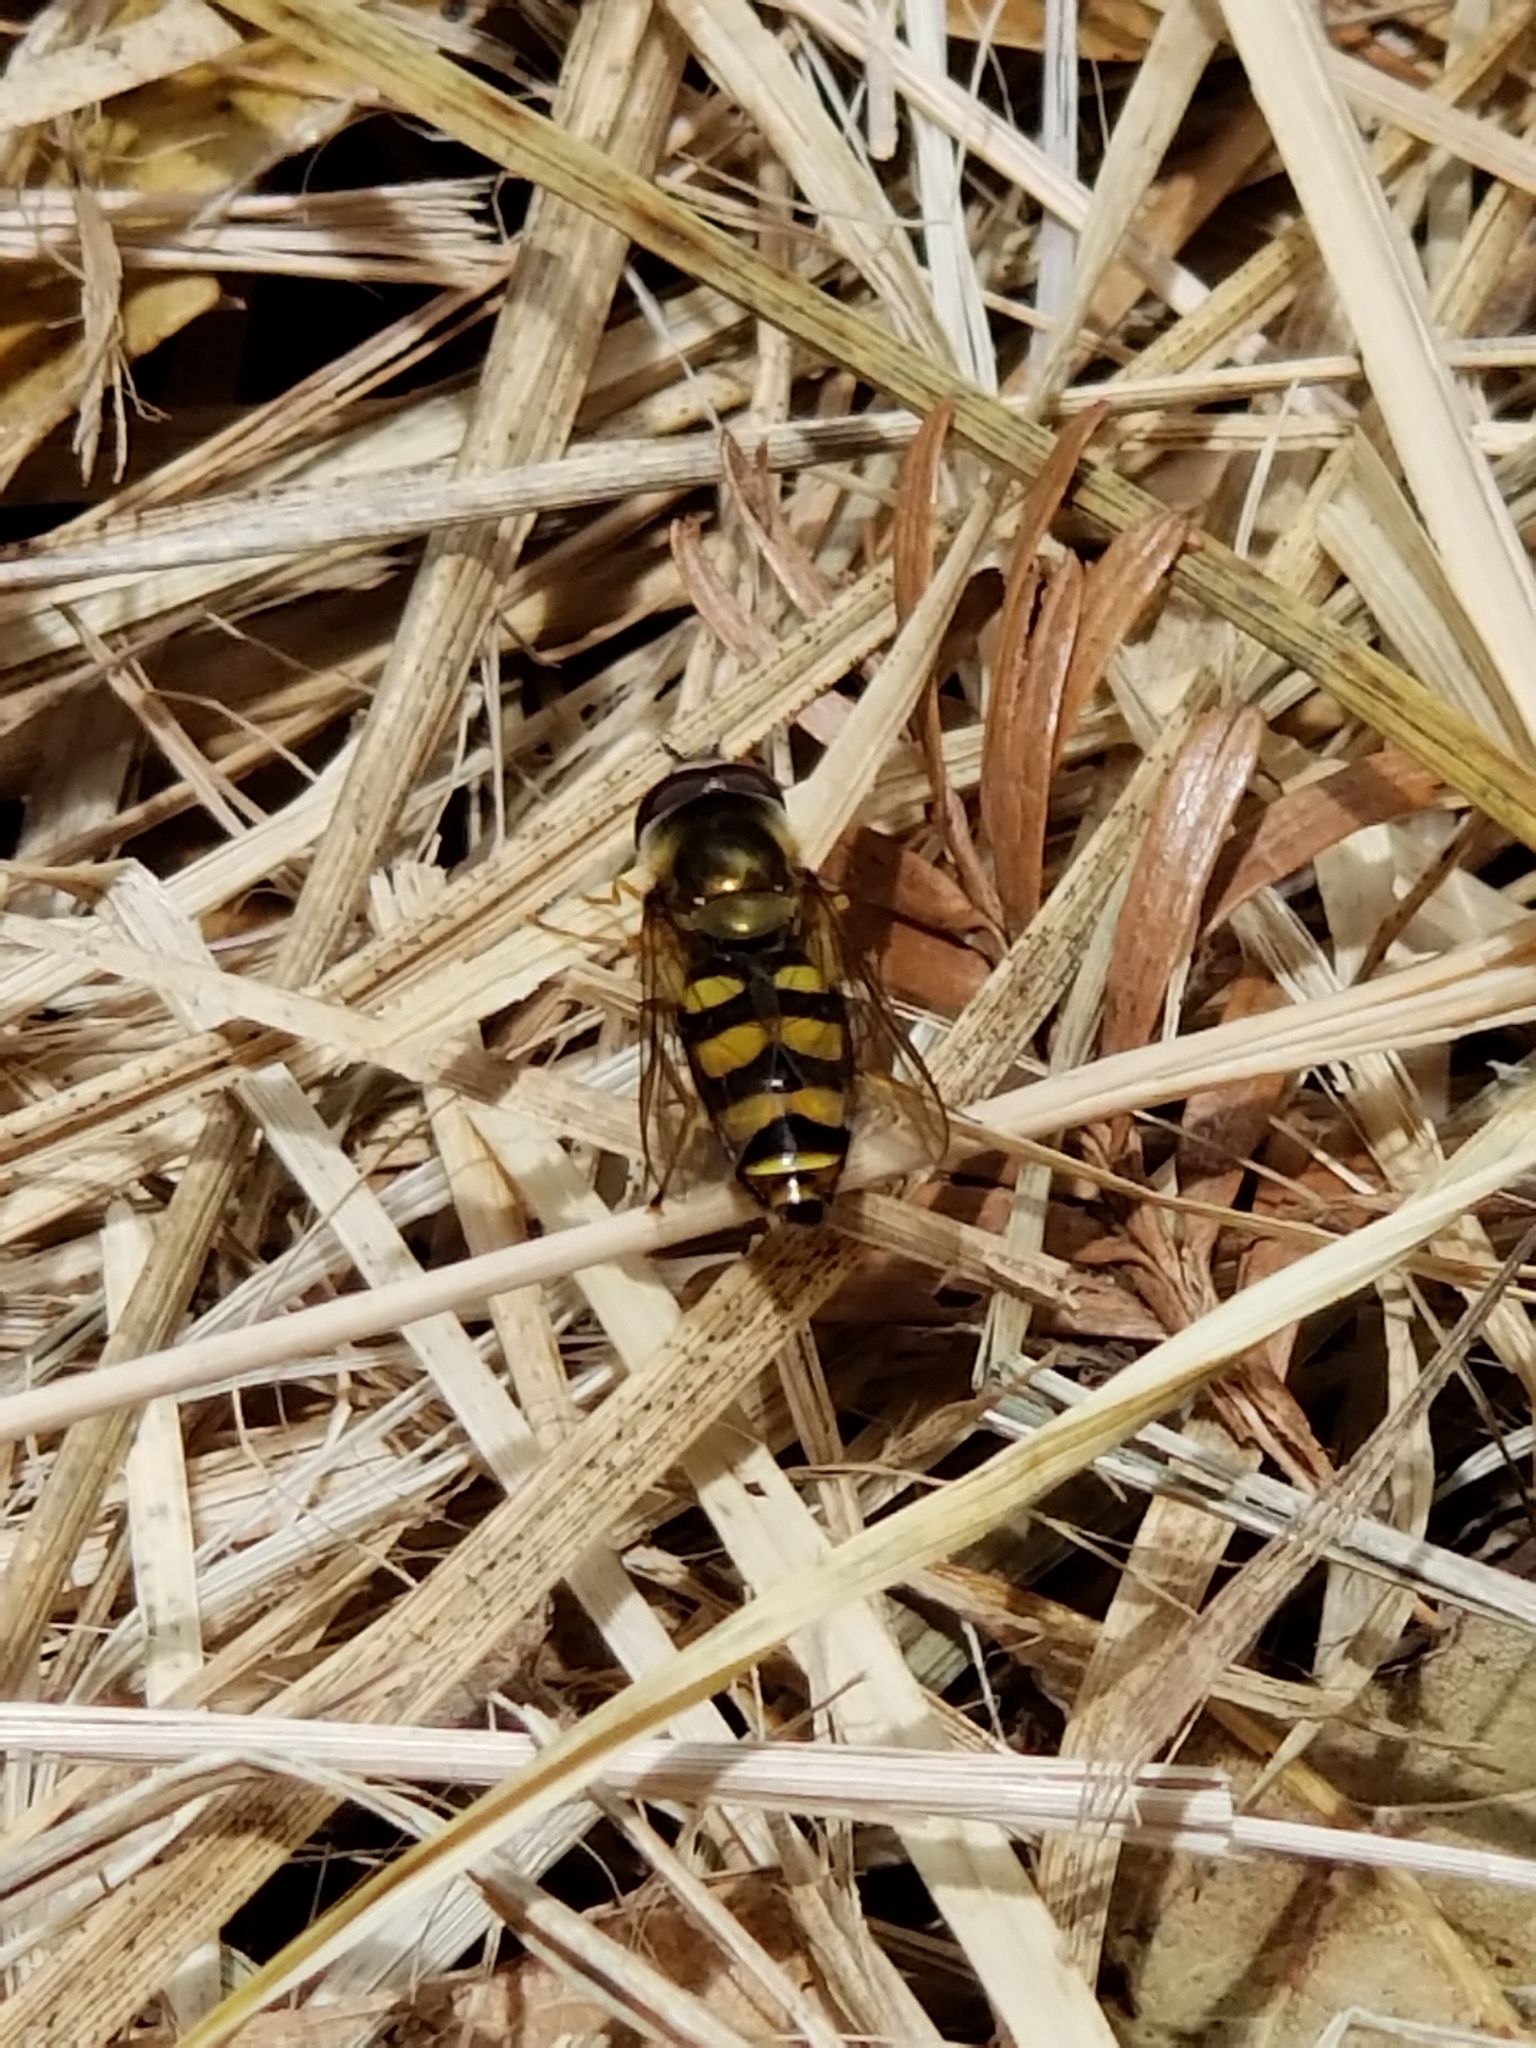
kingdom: Animalia
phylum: Arthropoda
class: Insecta
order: Diptera
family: Syrphidae
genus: Eupeodes
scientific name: Eupeodes fumipennis
